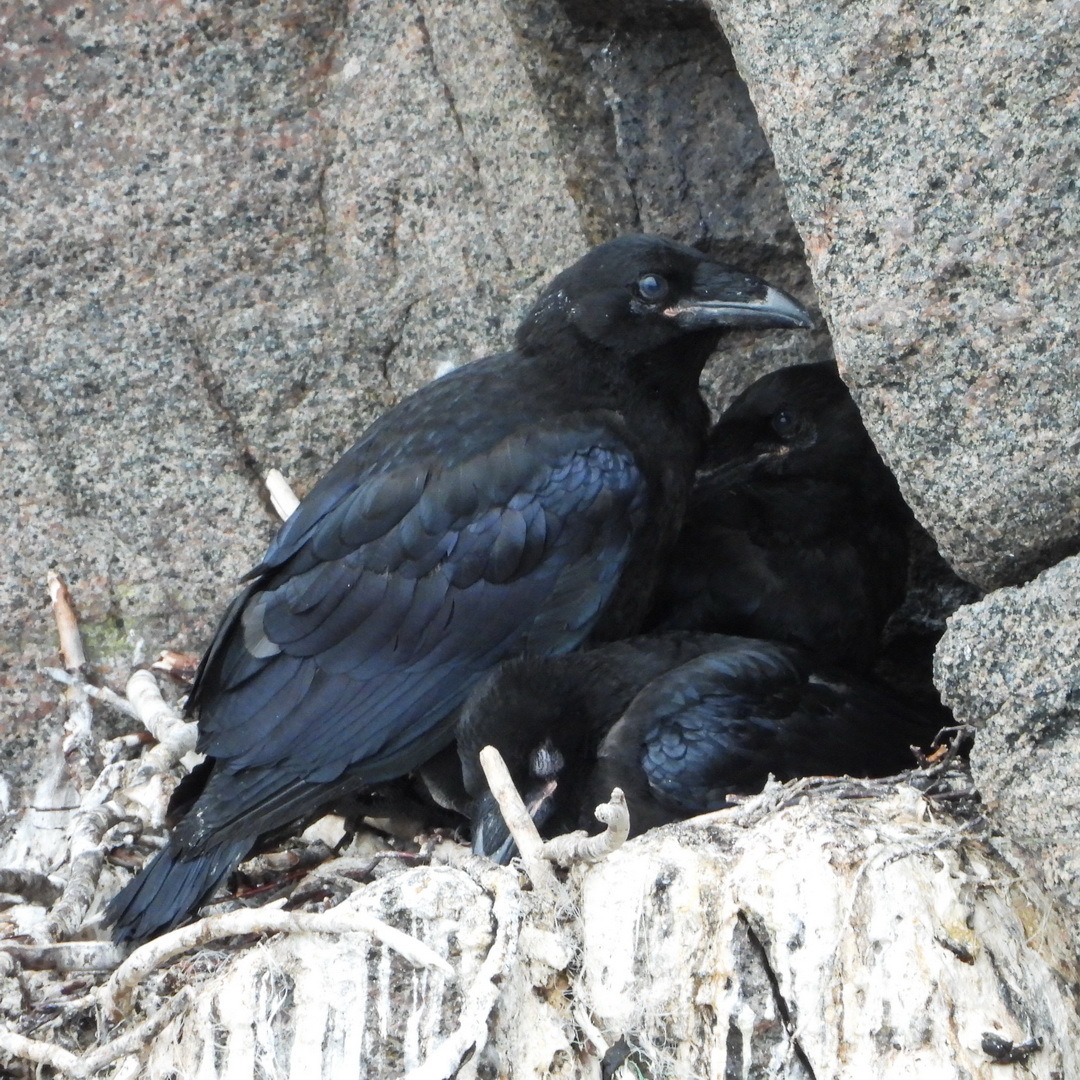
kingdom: Animalia
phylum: Chordata
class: Aves
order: Passeriformes
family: Corvidae
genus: Corvus
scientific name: Corvus corax
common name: Common raven
